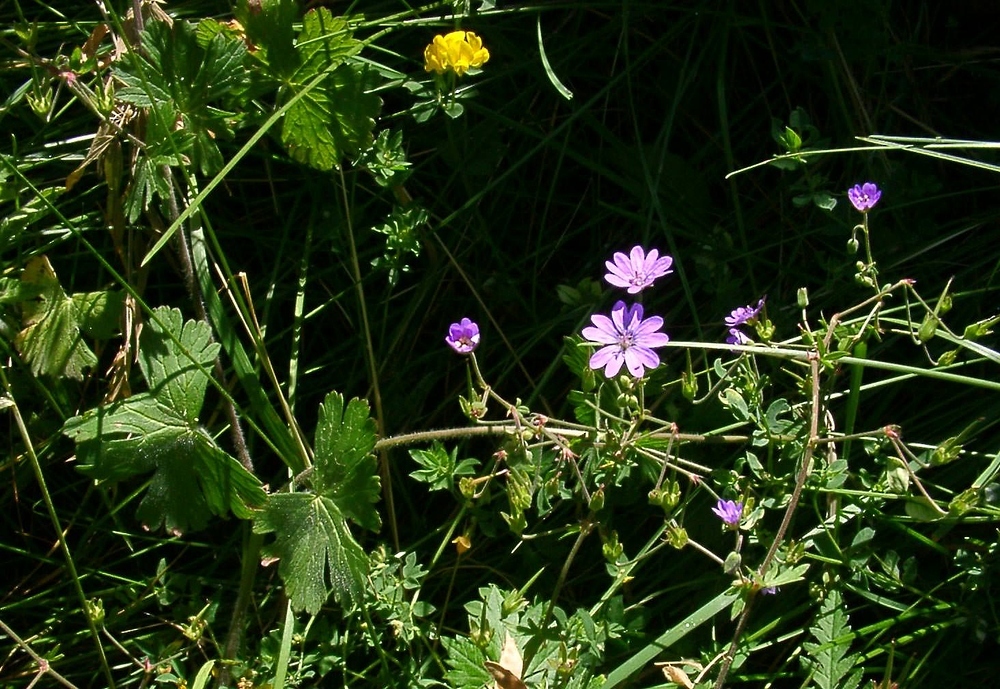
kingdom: Plantae
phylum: Tracheophyta
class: Magnoliopsida
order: Geraniales
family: Geraniaceae
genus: Geranium
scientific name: Geranium pyrenaicum
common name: Hedgerow crane's-bill
